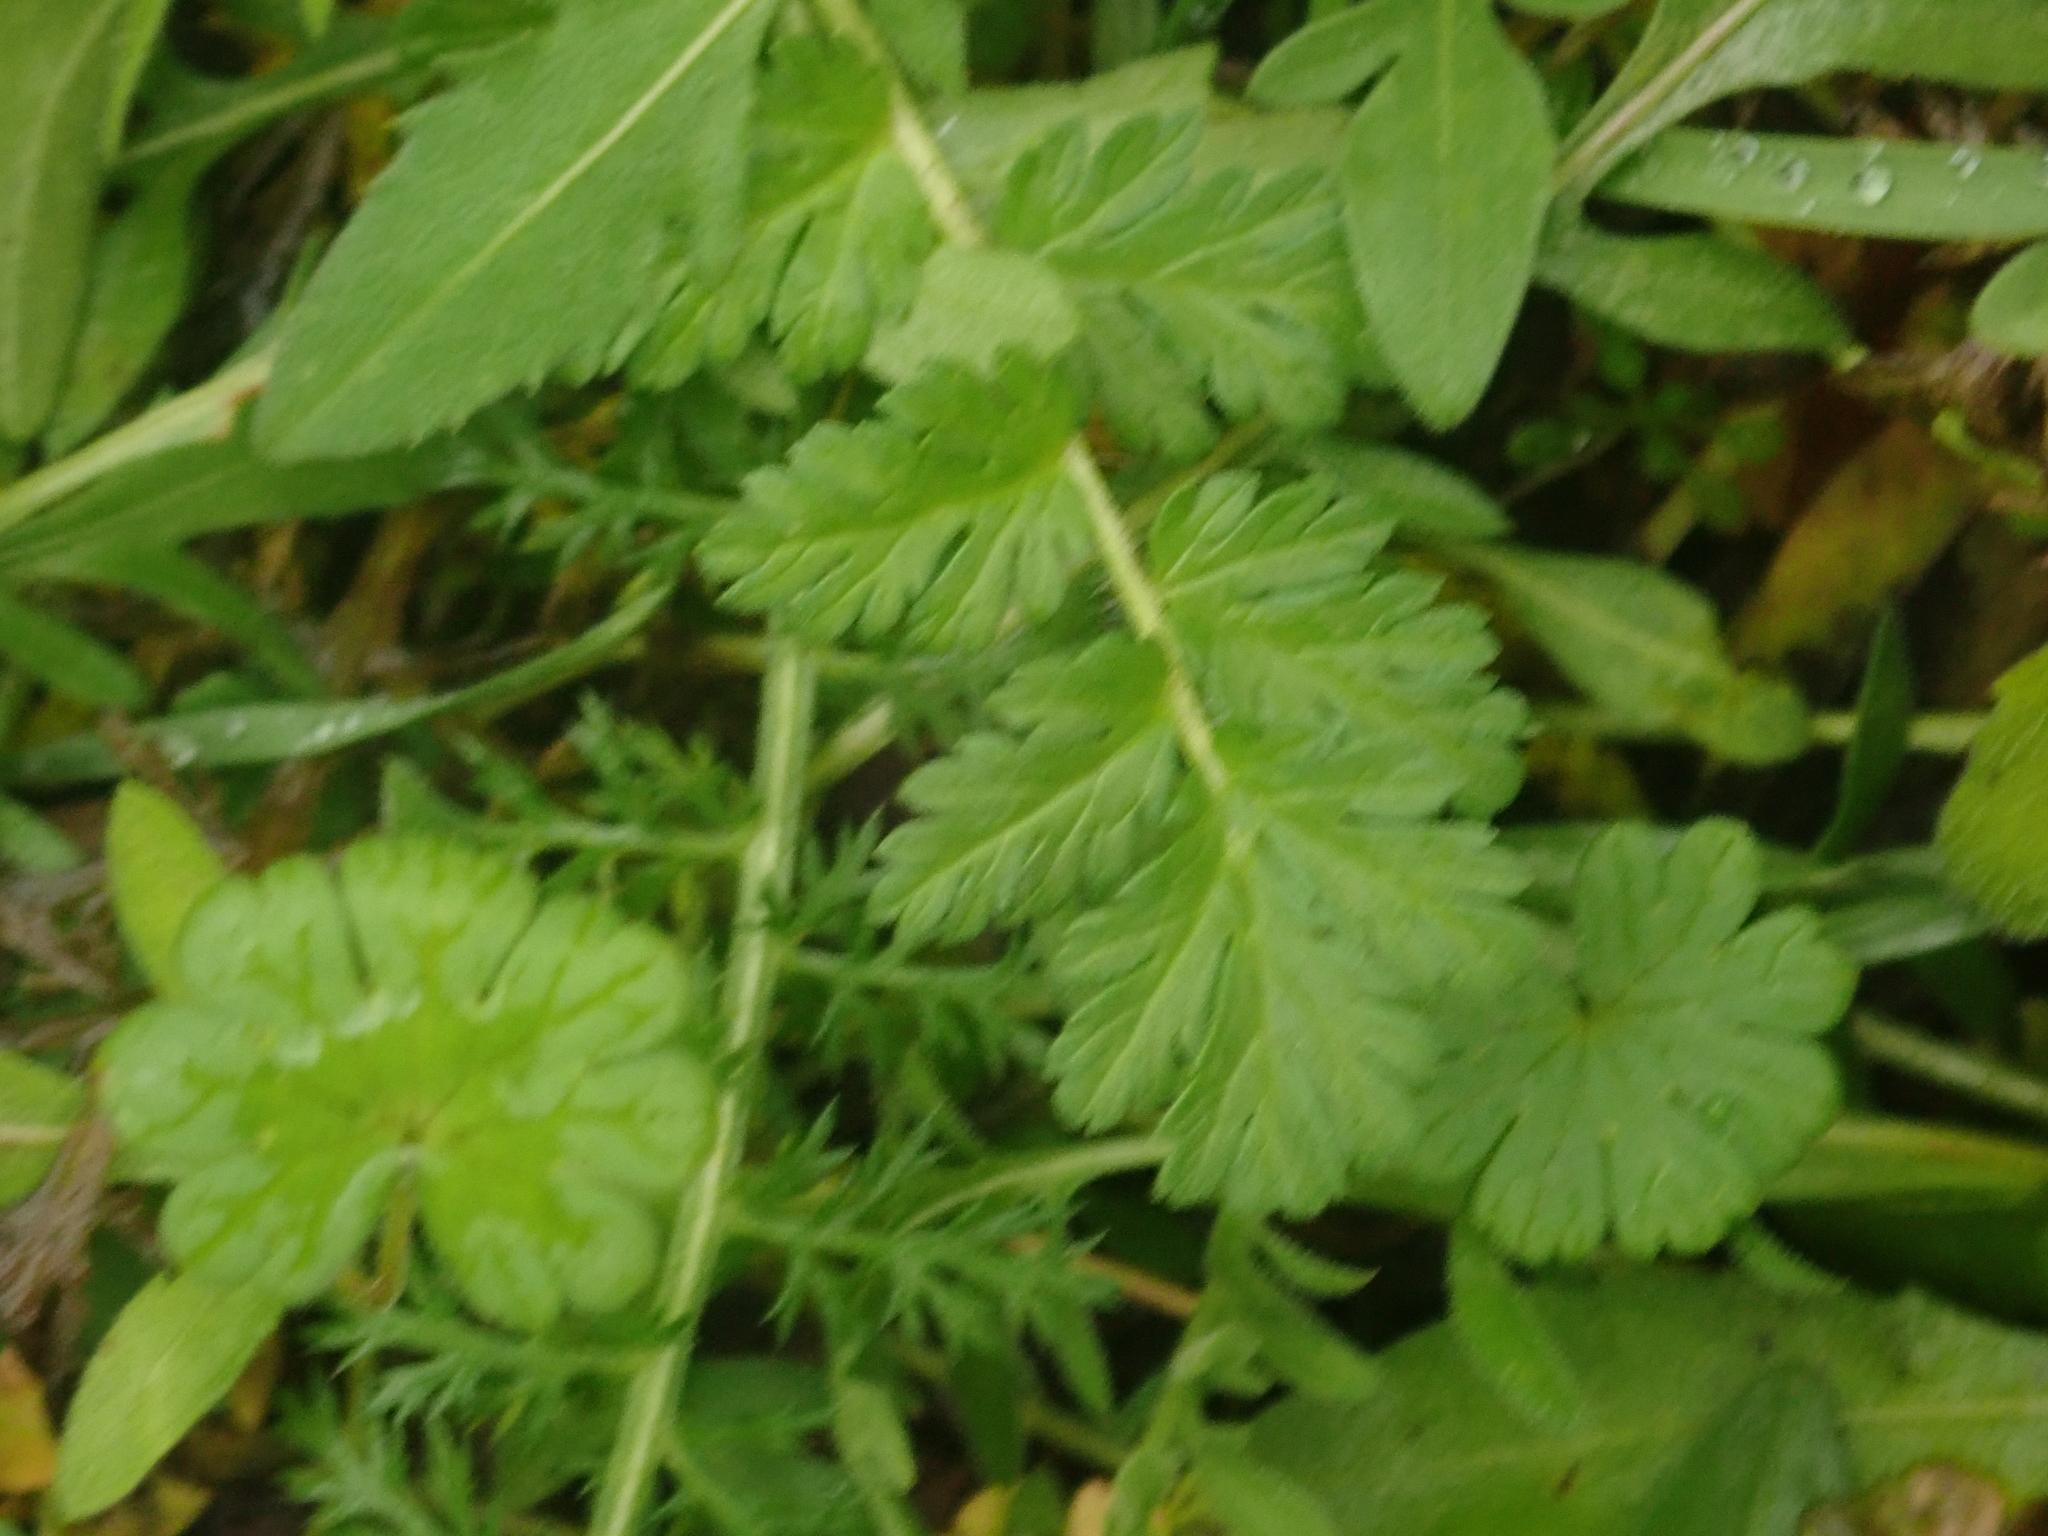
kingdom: Plantae
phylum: Tracheophyta
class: Magnoliopsida
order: Geraniales
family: Geraniaceae
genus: Erodium
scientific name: Erodium cicutarium
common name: Common stork's-bill
